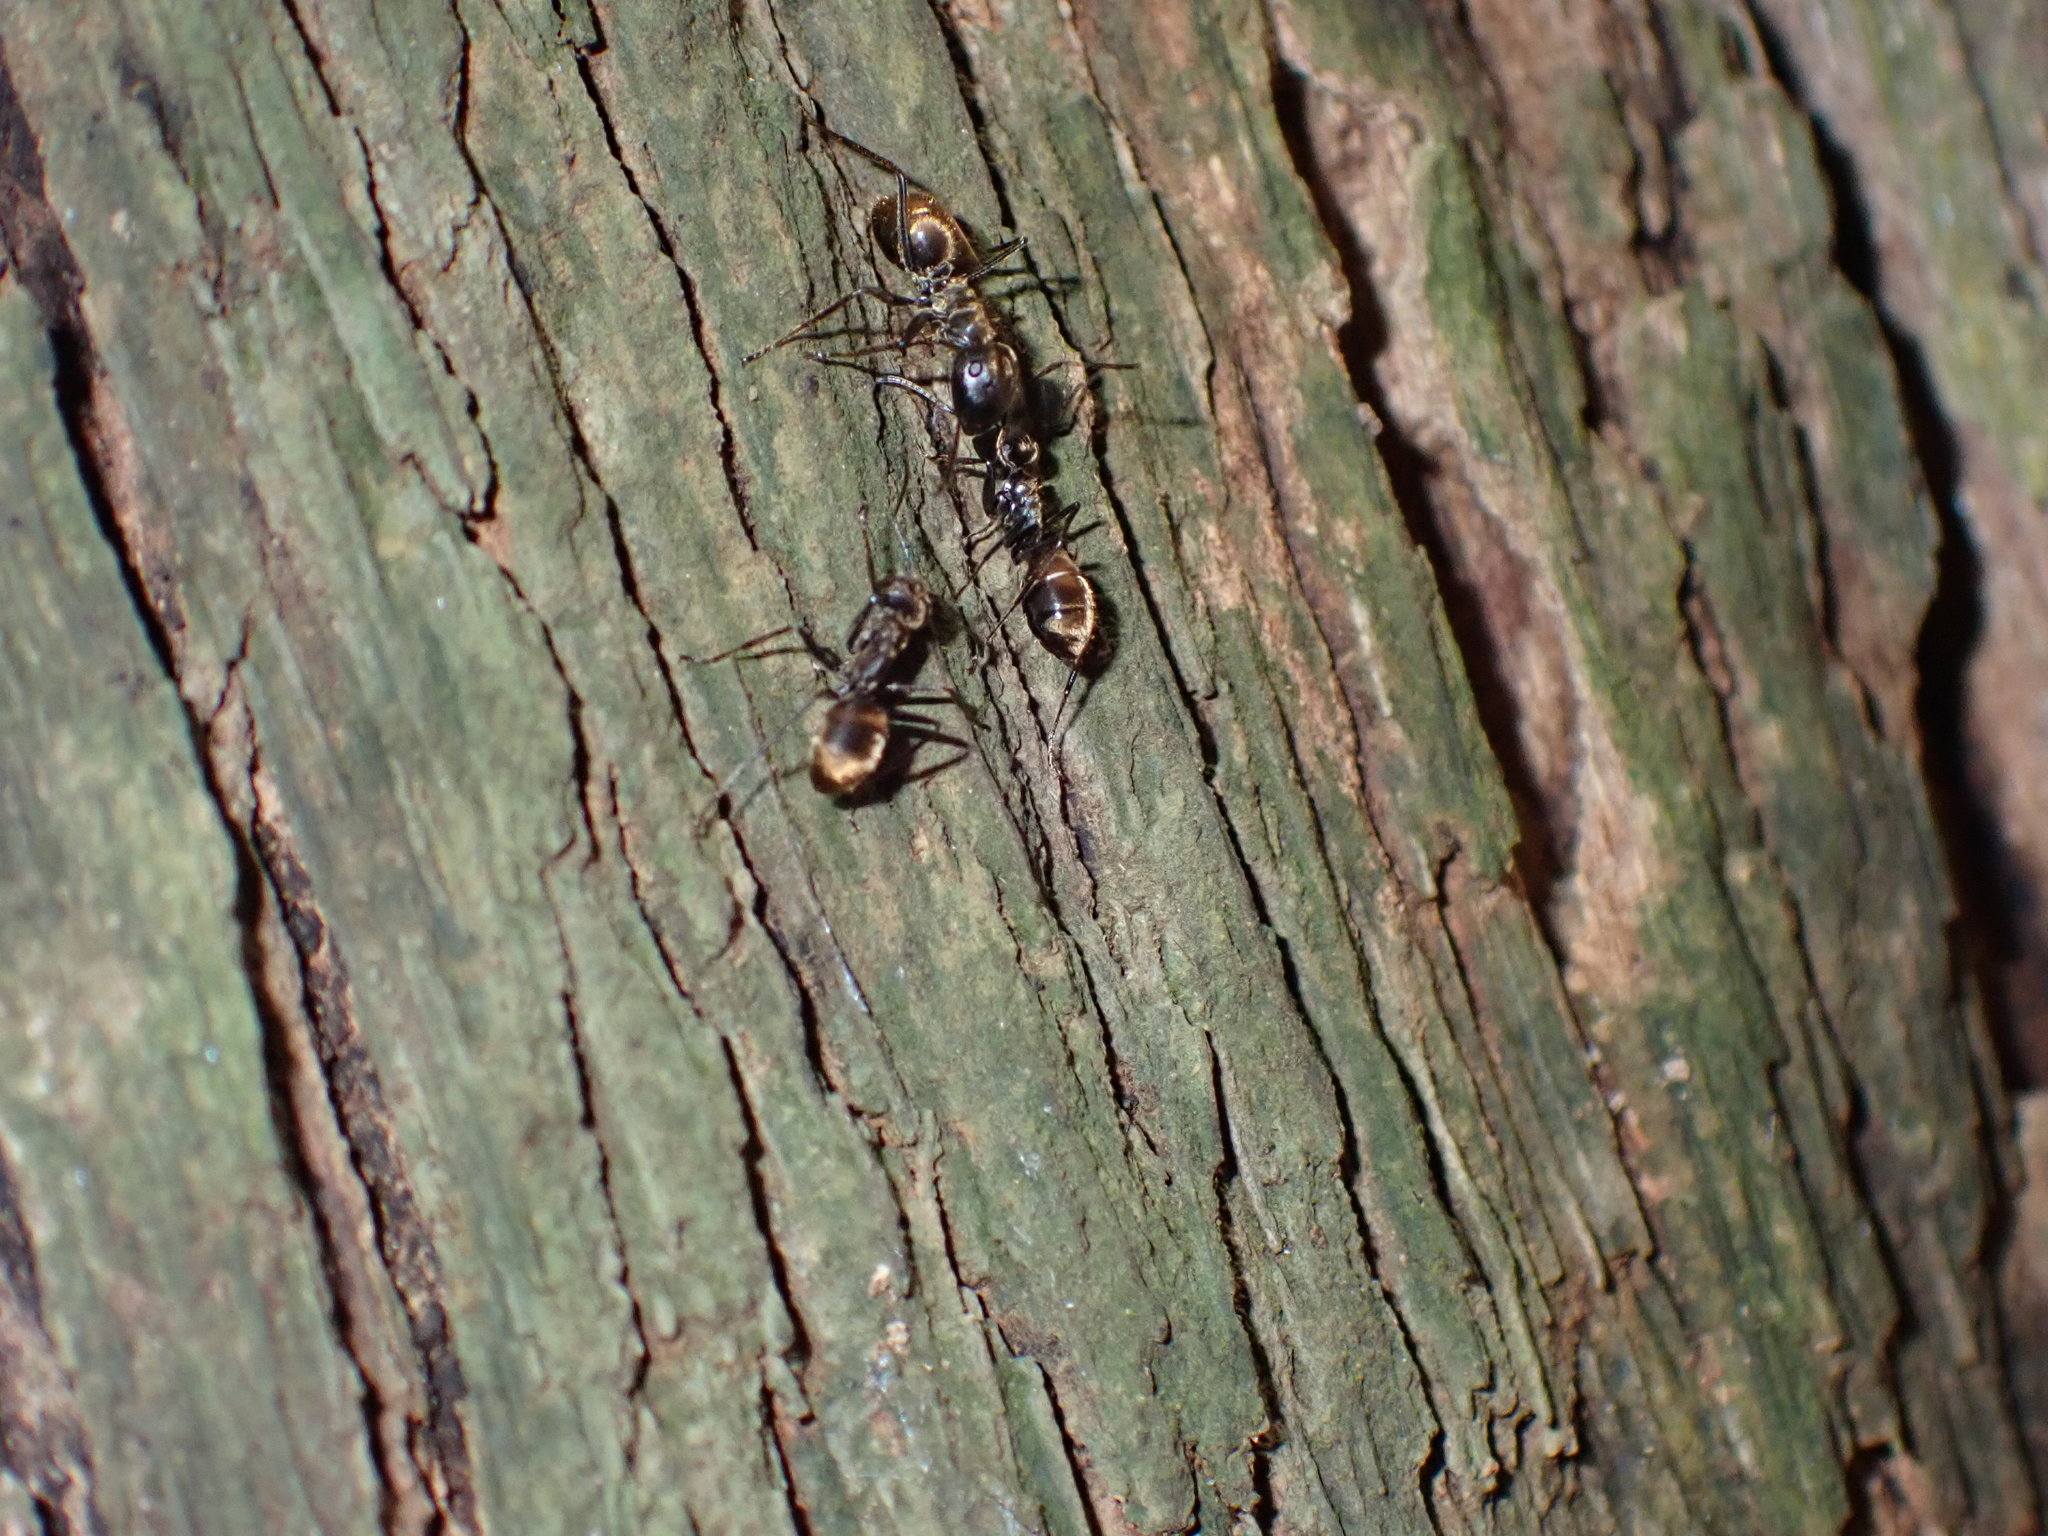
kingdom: Animalia
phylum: Arthropoda
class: Insecta
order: Hymenoptera
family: Formicidae
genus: Colobopsis
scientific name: Colobopsis
